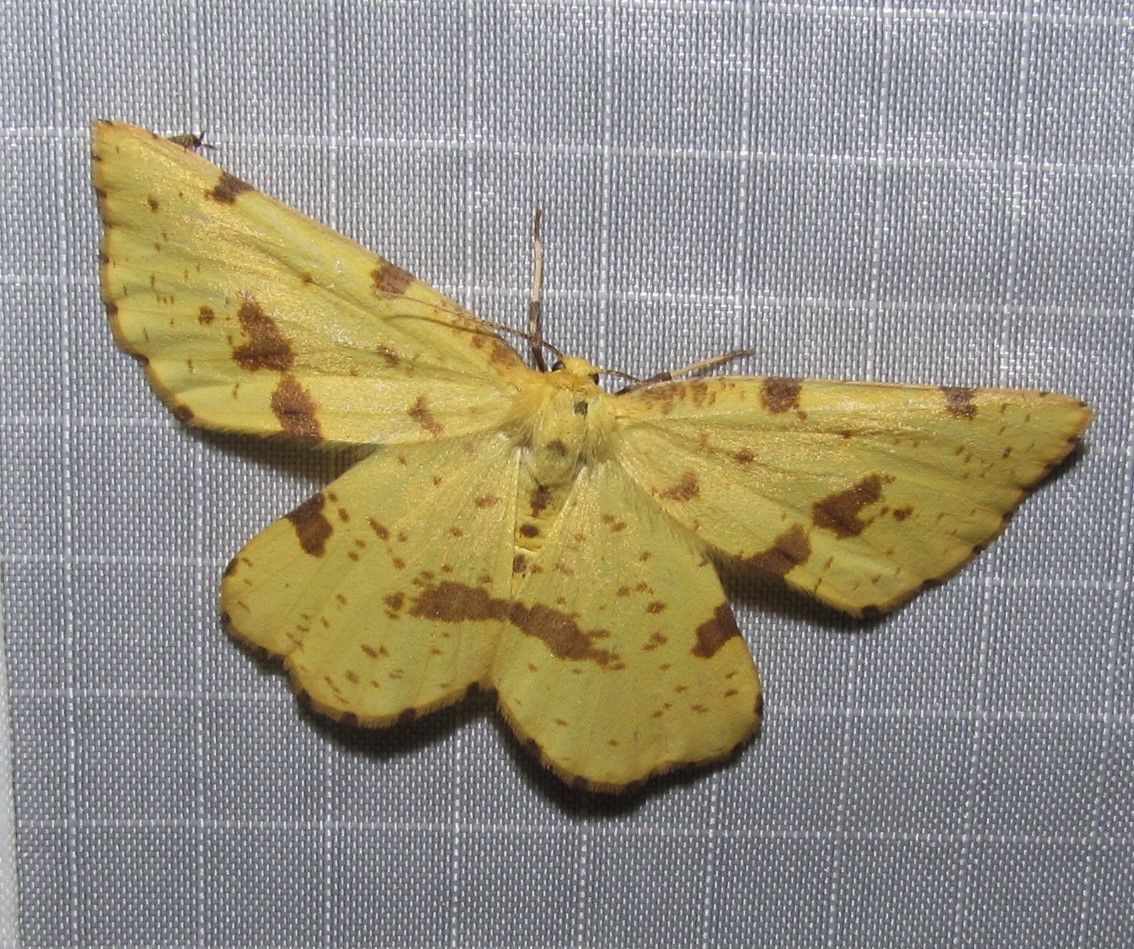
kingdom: Animalia
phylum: Arthropoda
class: Insecta
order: Lepidoptera
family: Geometridae
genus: Xanthotype
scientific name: Xanthotype
